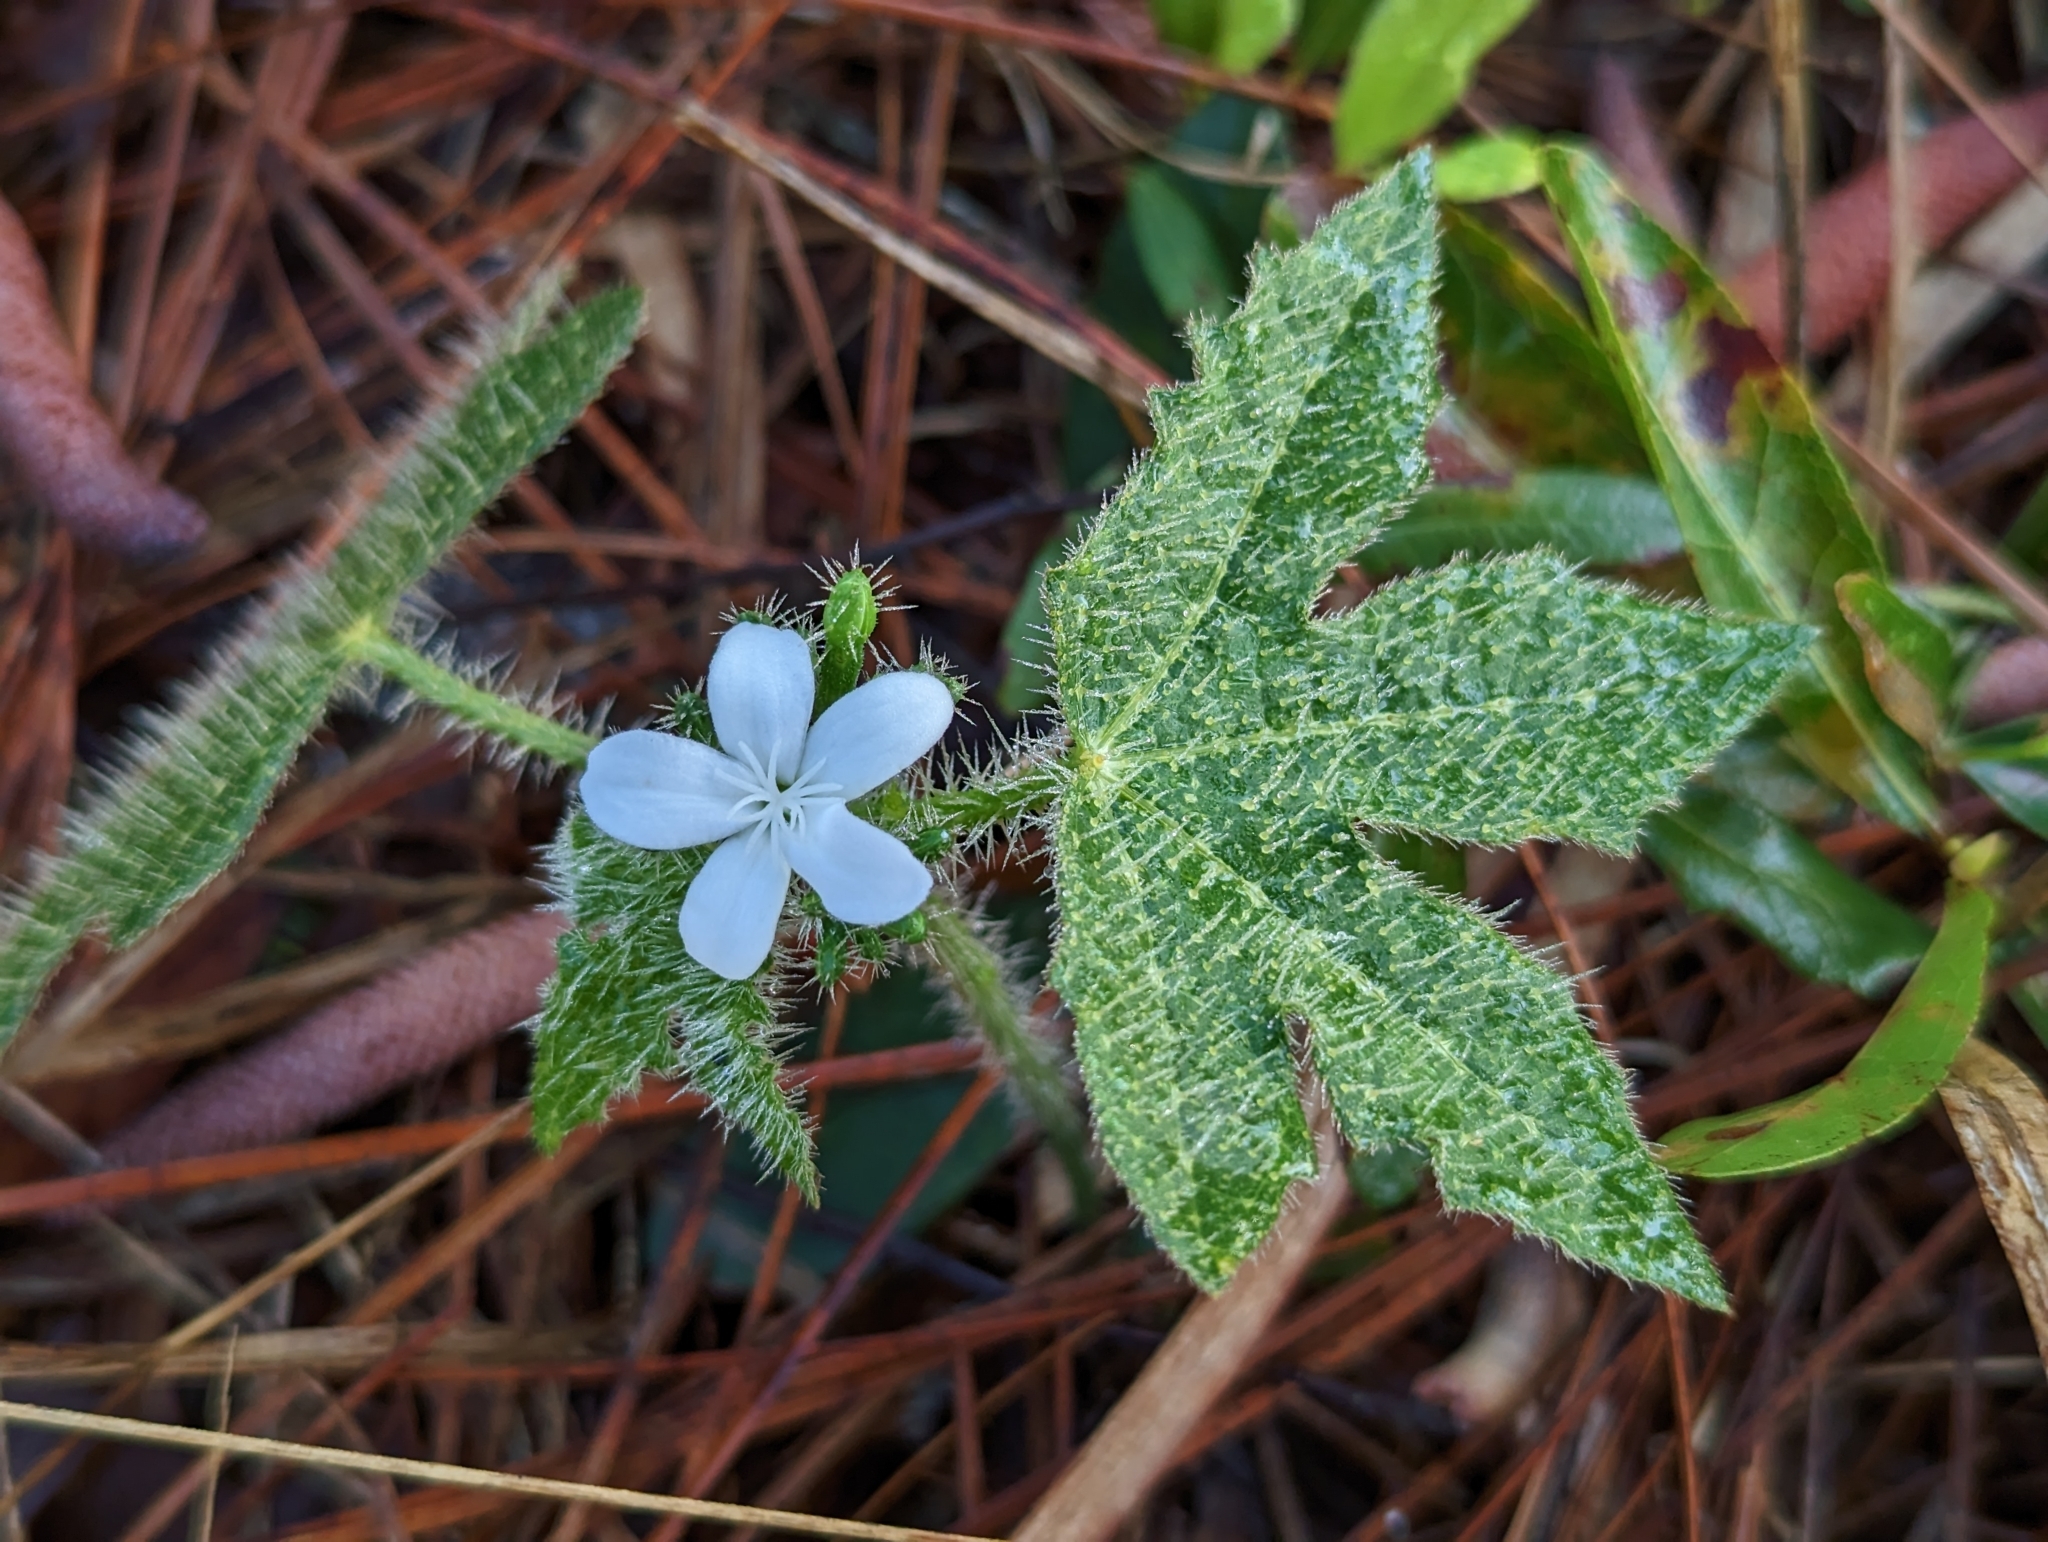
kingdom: Plantae
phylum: Tracheophyta
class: Magnoliopsida
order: Malpighiales
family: Euphorbiaceae
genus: Cnidoscolus
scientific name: Cnidoscolus stimulosus
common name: Bull-nettle
